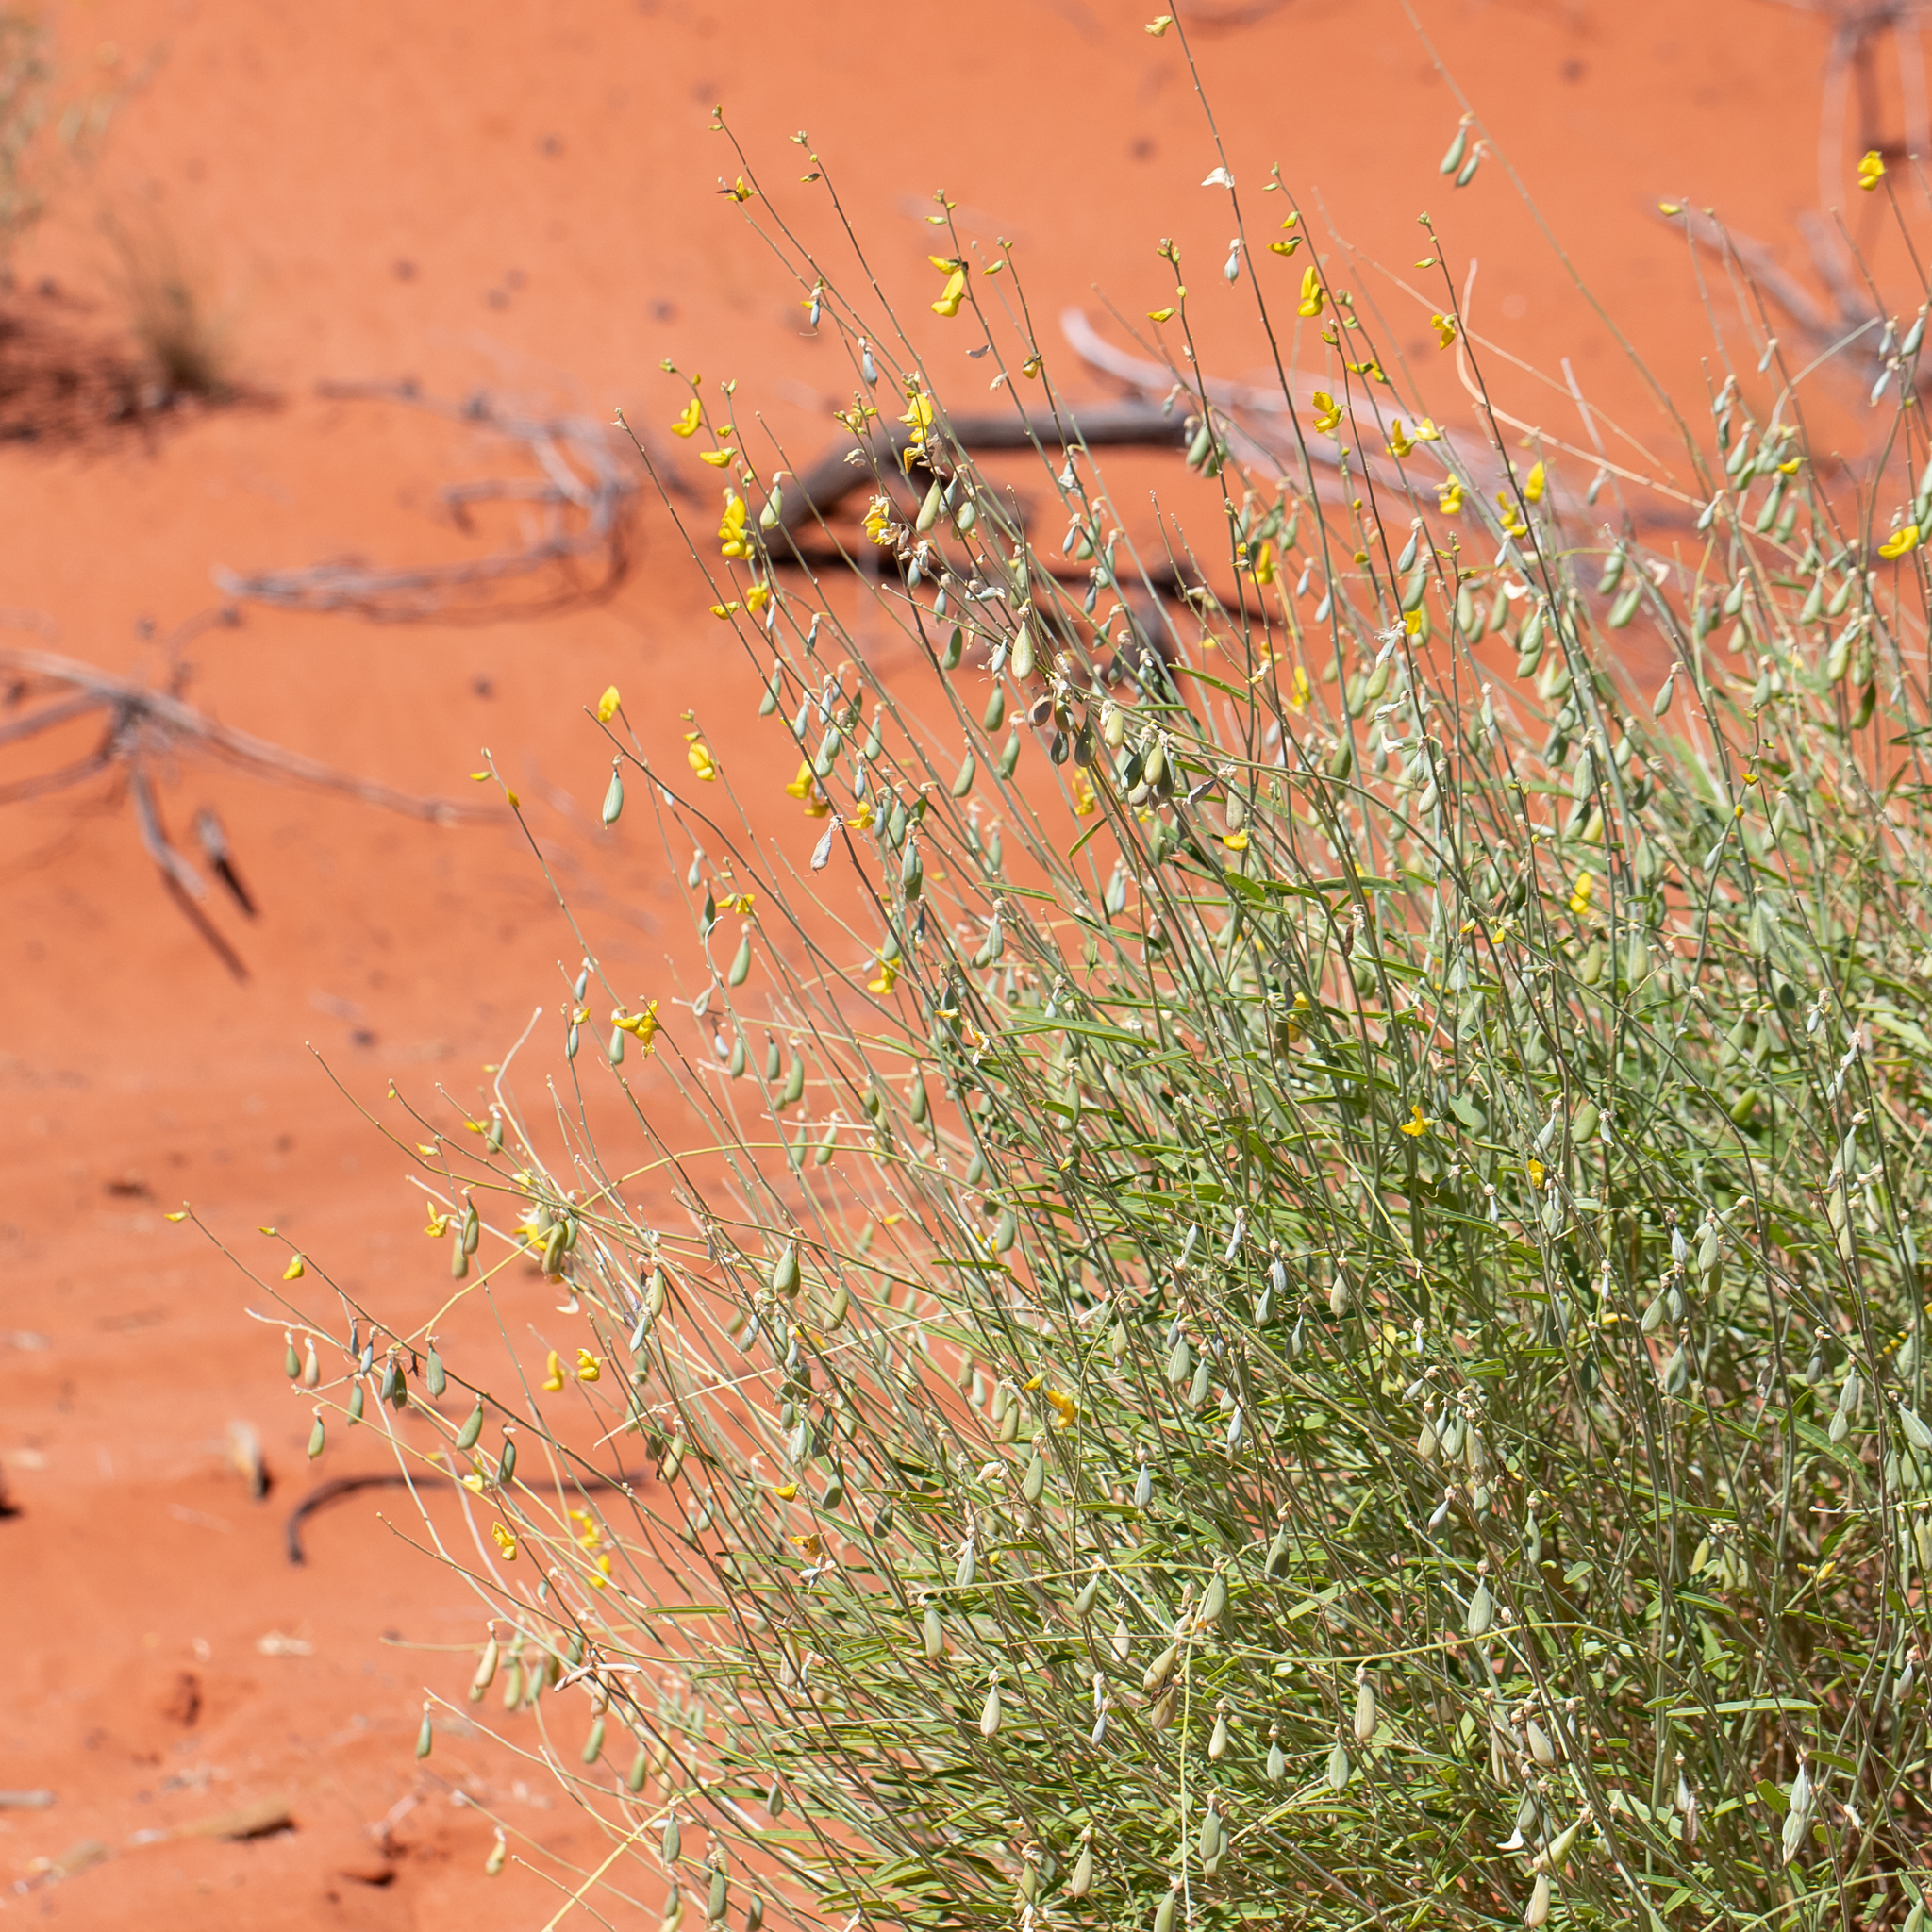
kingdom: Plantae
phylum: Tracheophyta
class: Magnoliopsida
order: Fabales
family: Fabaceae
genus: Crotalaria
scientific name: Crotalaria eremaea
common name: Bluebush pea
